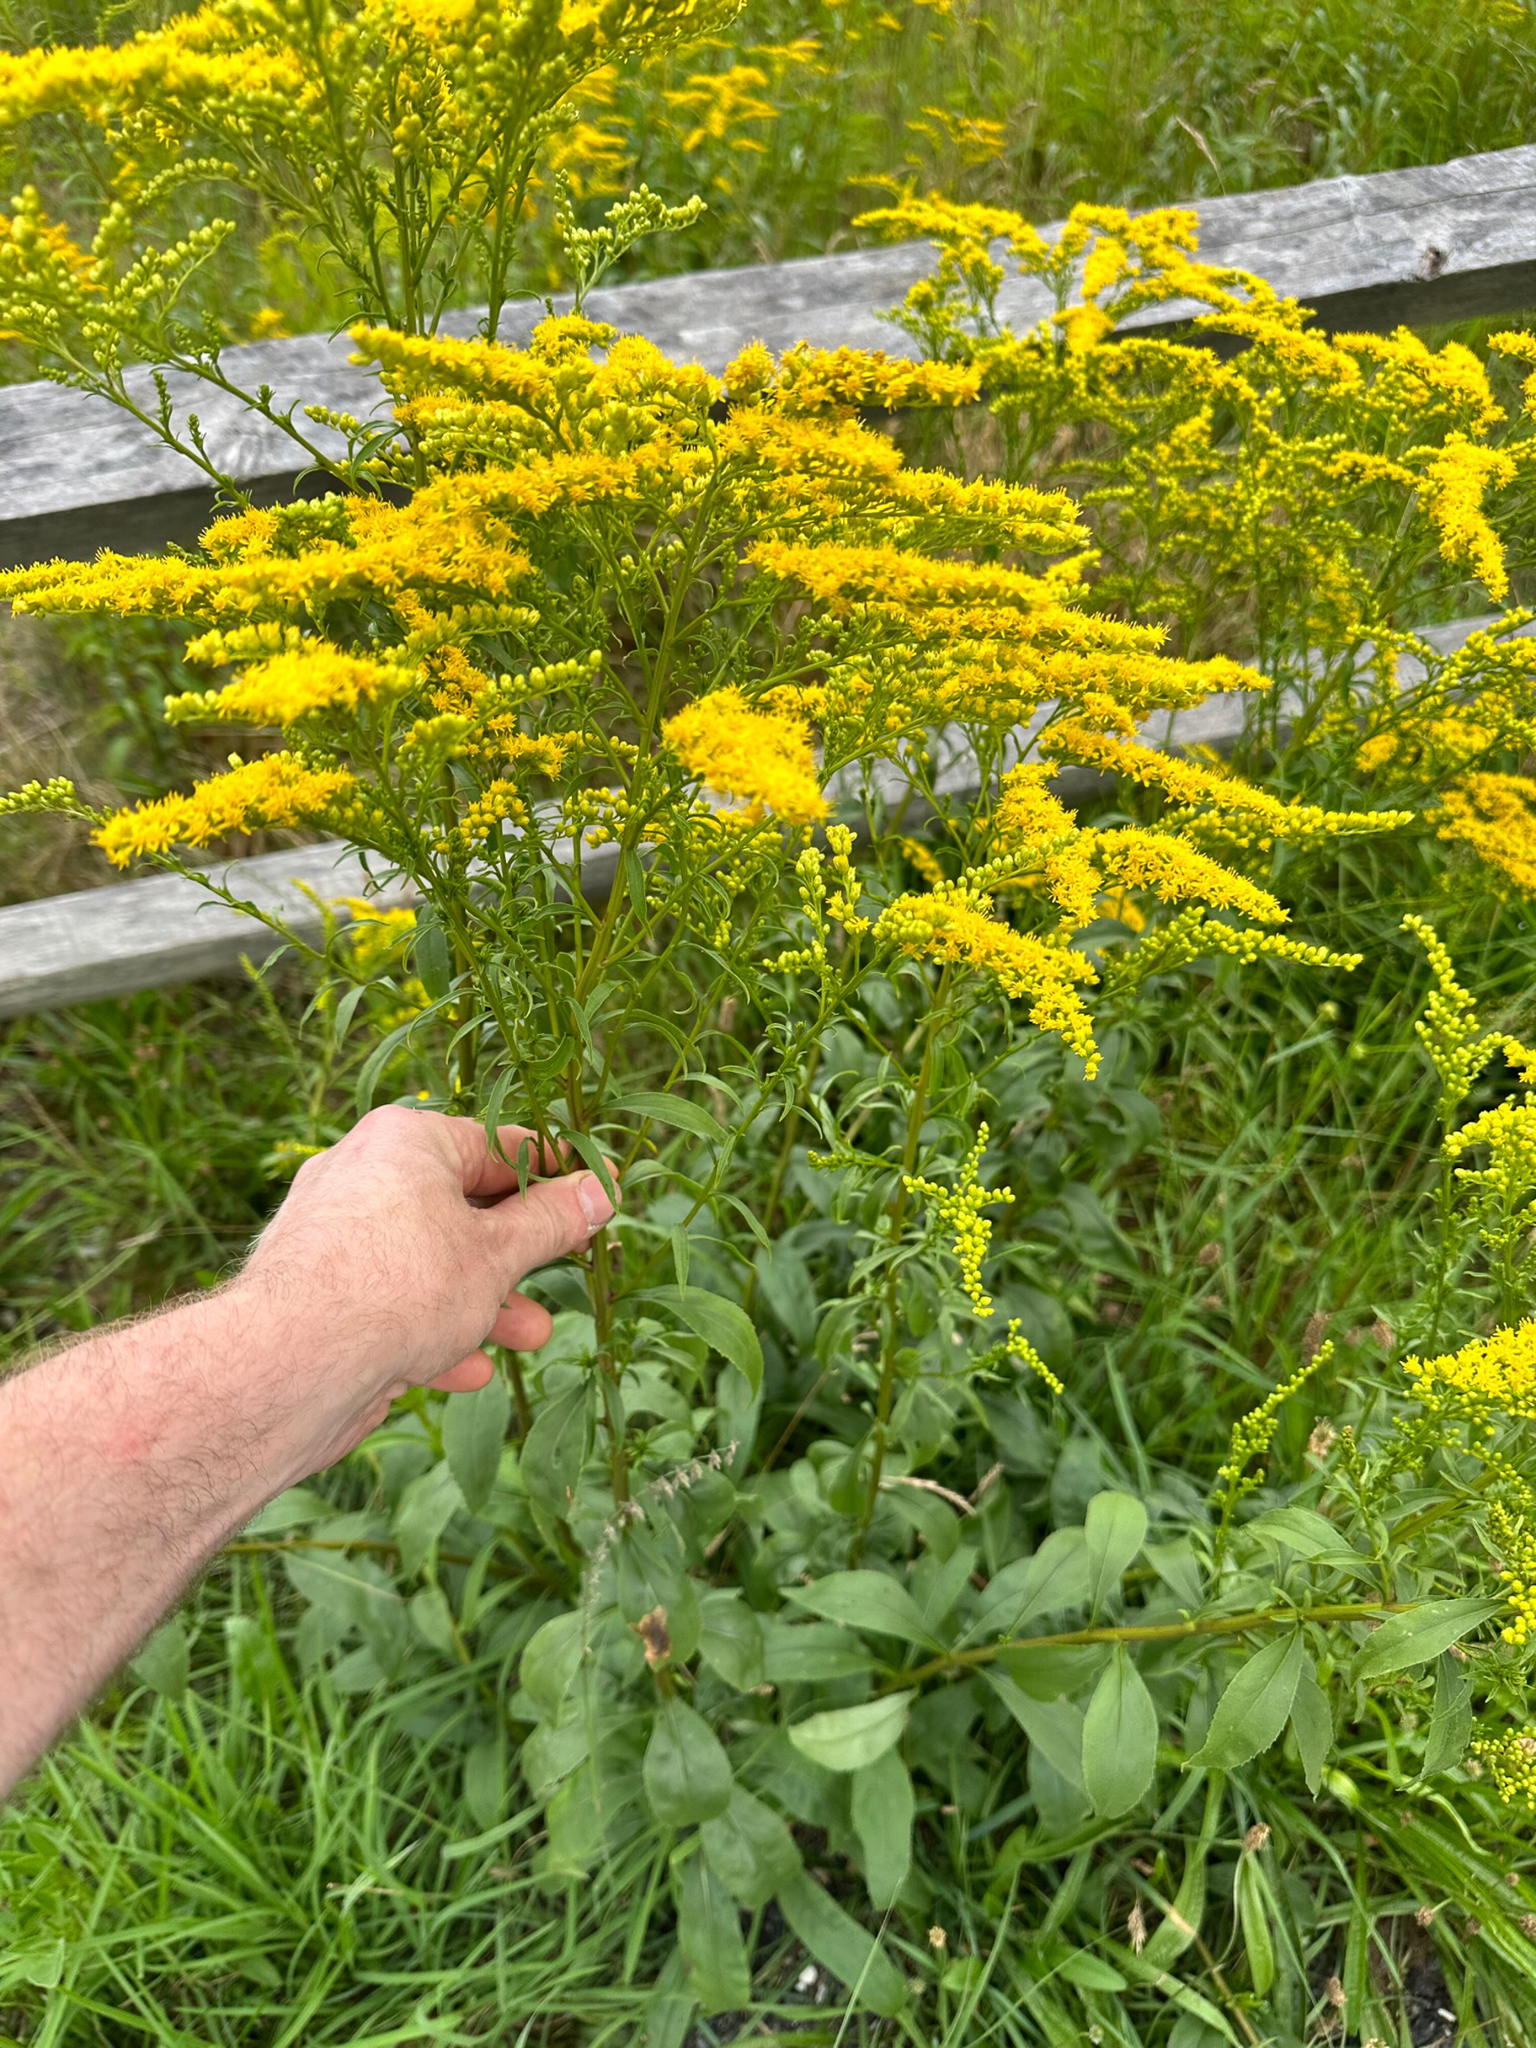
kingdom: Plantae
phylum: Tracheophyta
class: Magnoliopsida
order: Asterales
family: Asteraceae
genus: Solidago
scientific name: Solidago juncea
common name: Early goldenrod
